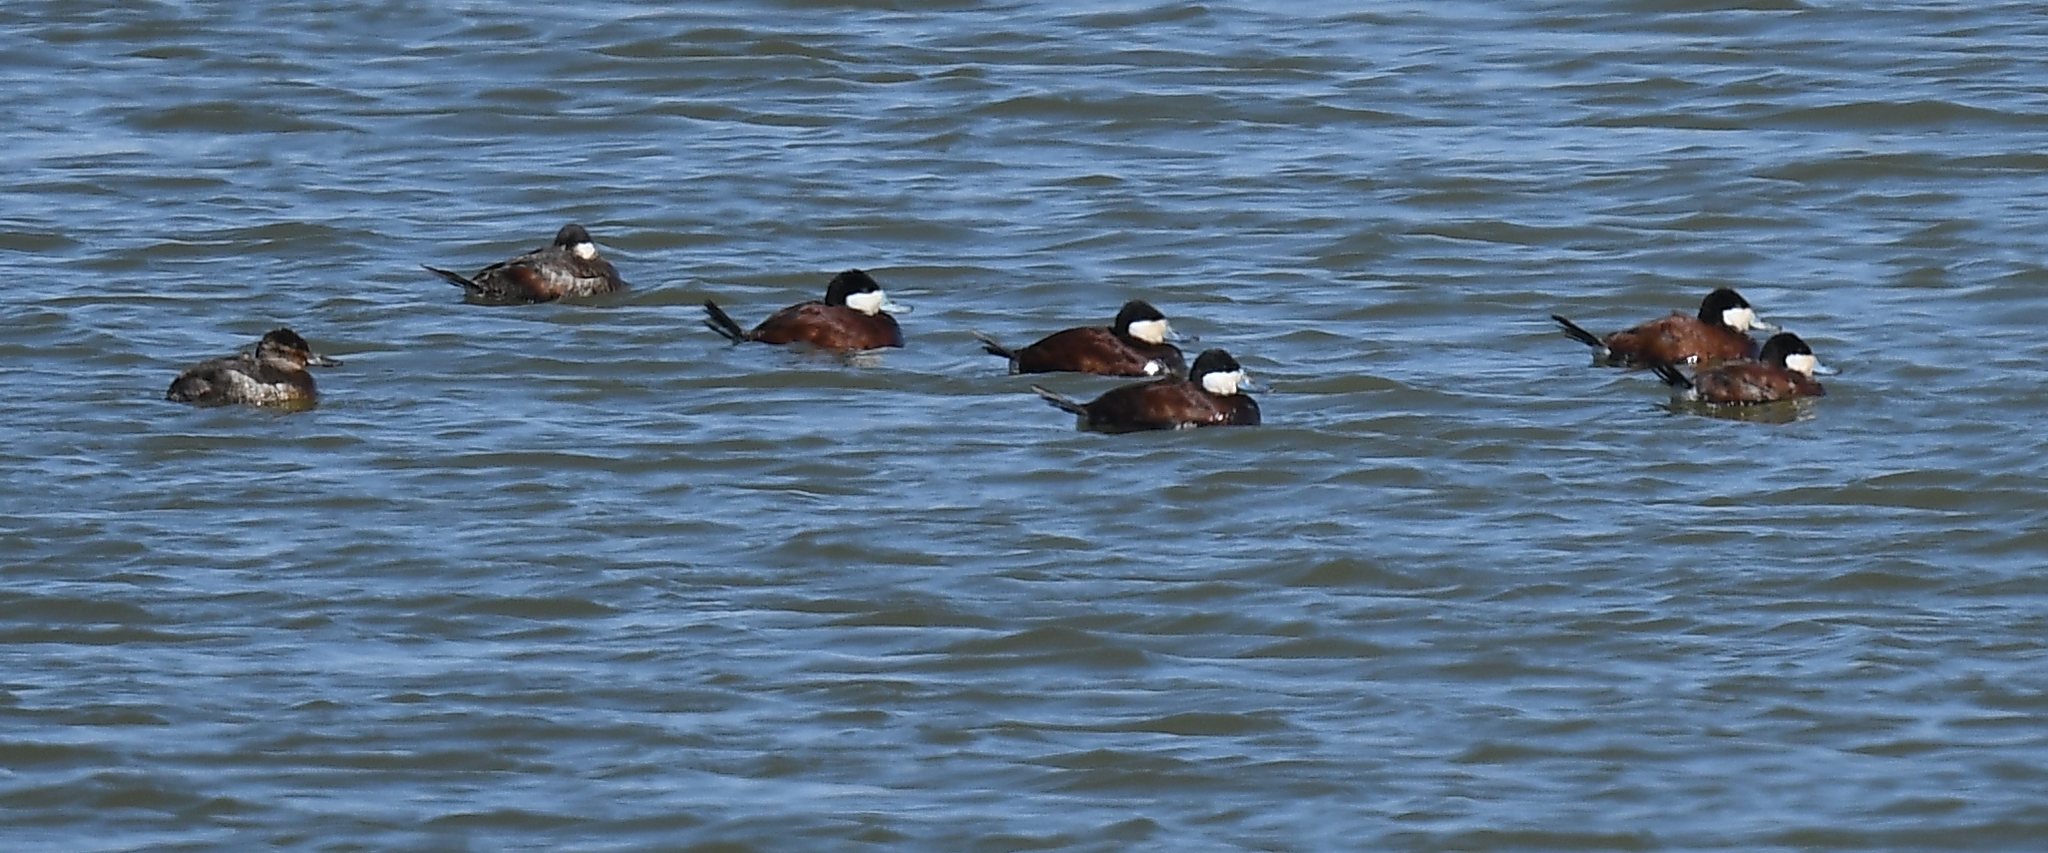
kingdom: Animalia
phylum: Chordata
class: Aves
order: Anseriformes
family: Anatidae
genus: Oxyura
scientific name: Oxyura jamaicensis
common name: Ruddy duck
